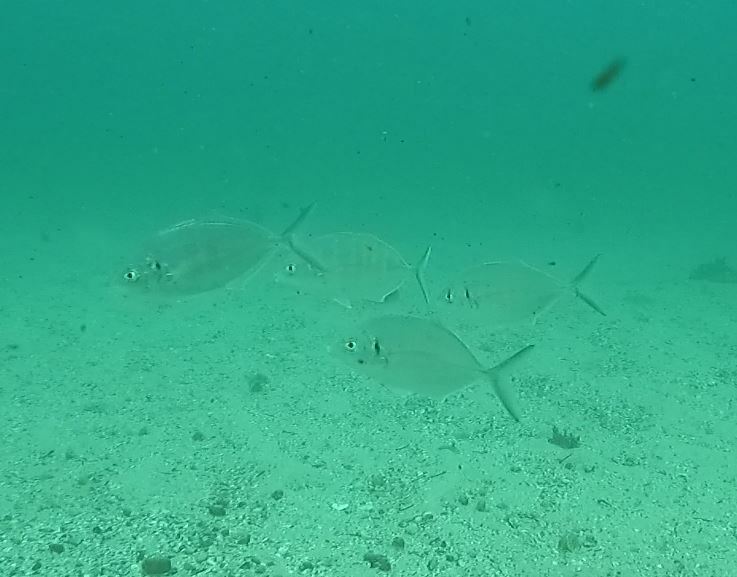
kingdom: Animalia
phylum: Chordata
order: Perciformes
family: Carangidae
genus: Pseudocaranx
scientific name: Pseudocaranx dentex
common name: White trevally
